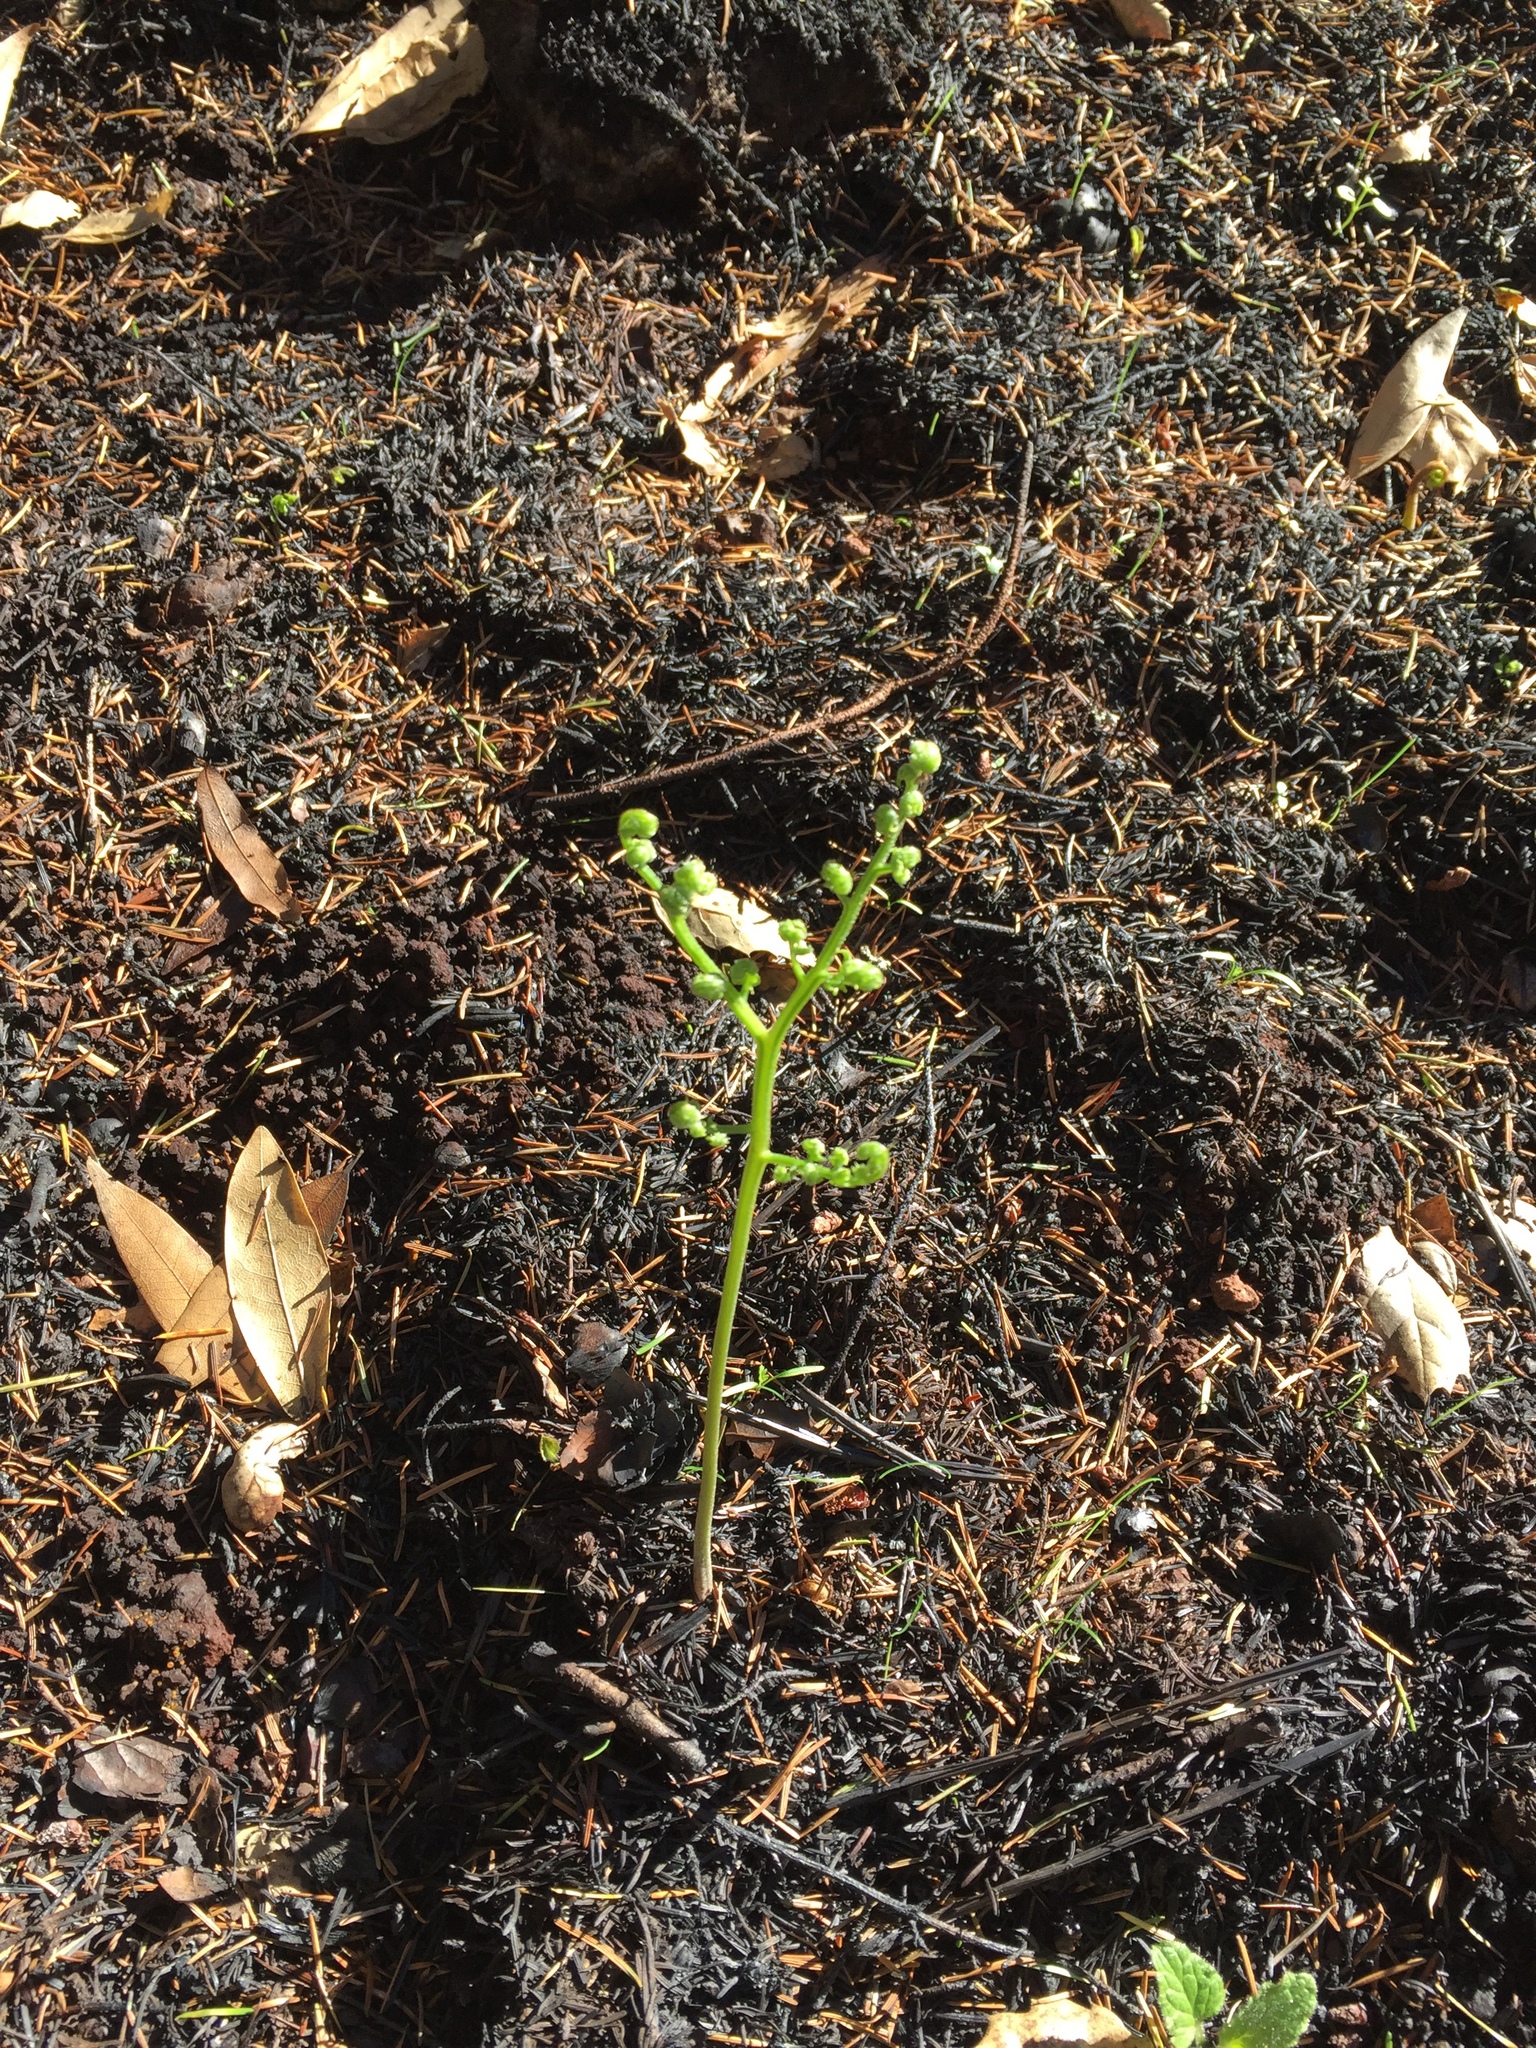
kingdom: Plantae
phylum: Tracheophyta
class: Polypodiopsida
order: Polypodiales
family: Dennstaedtiaceae
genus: Pteridium
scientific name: Pteridium aquilinum
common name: Bracken
